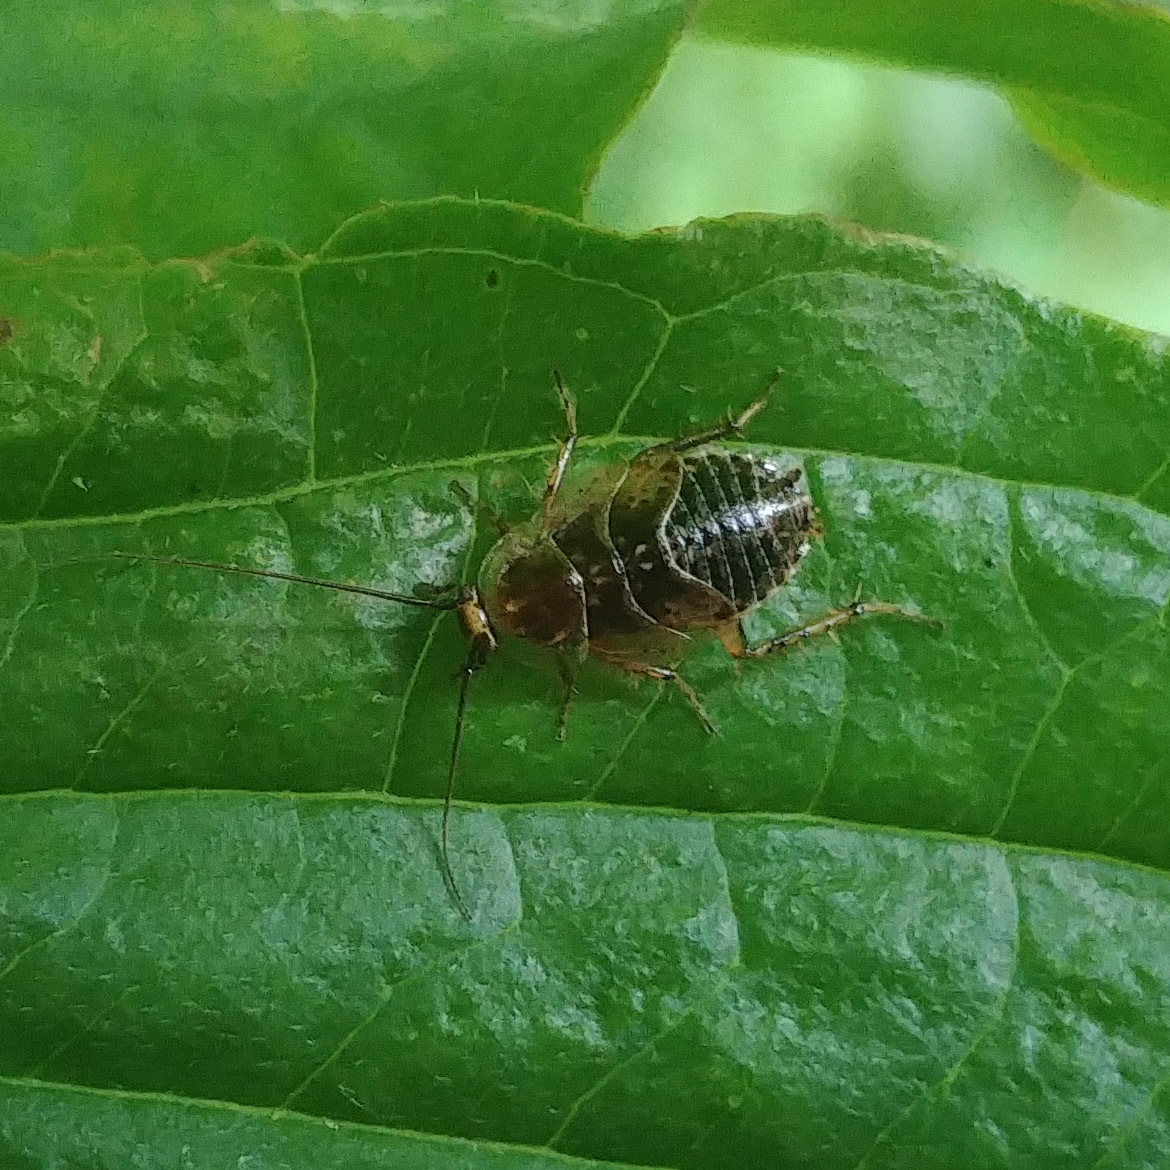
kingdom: Animalia
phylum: Arthropoda
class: Insecta
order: Blattodea
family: Ectobiidae
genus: Ectobius
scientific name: Ectobius lapponicus
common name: Dusky cockroach
